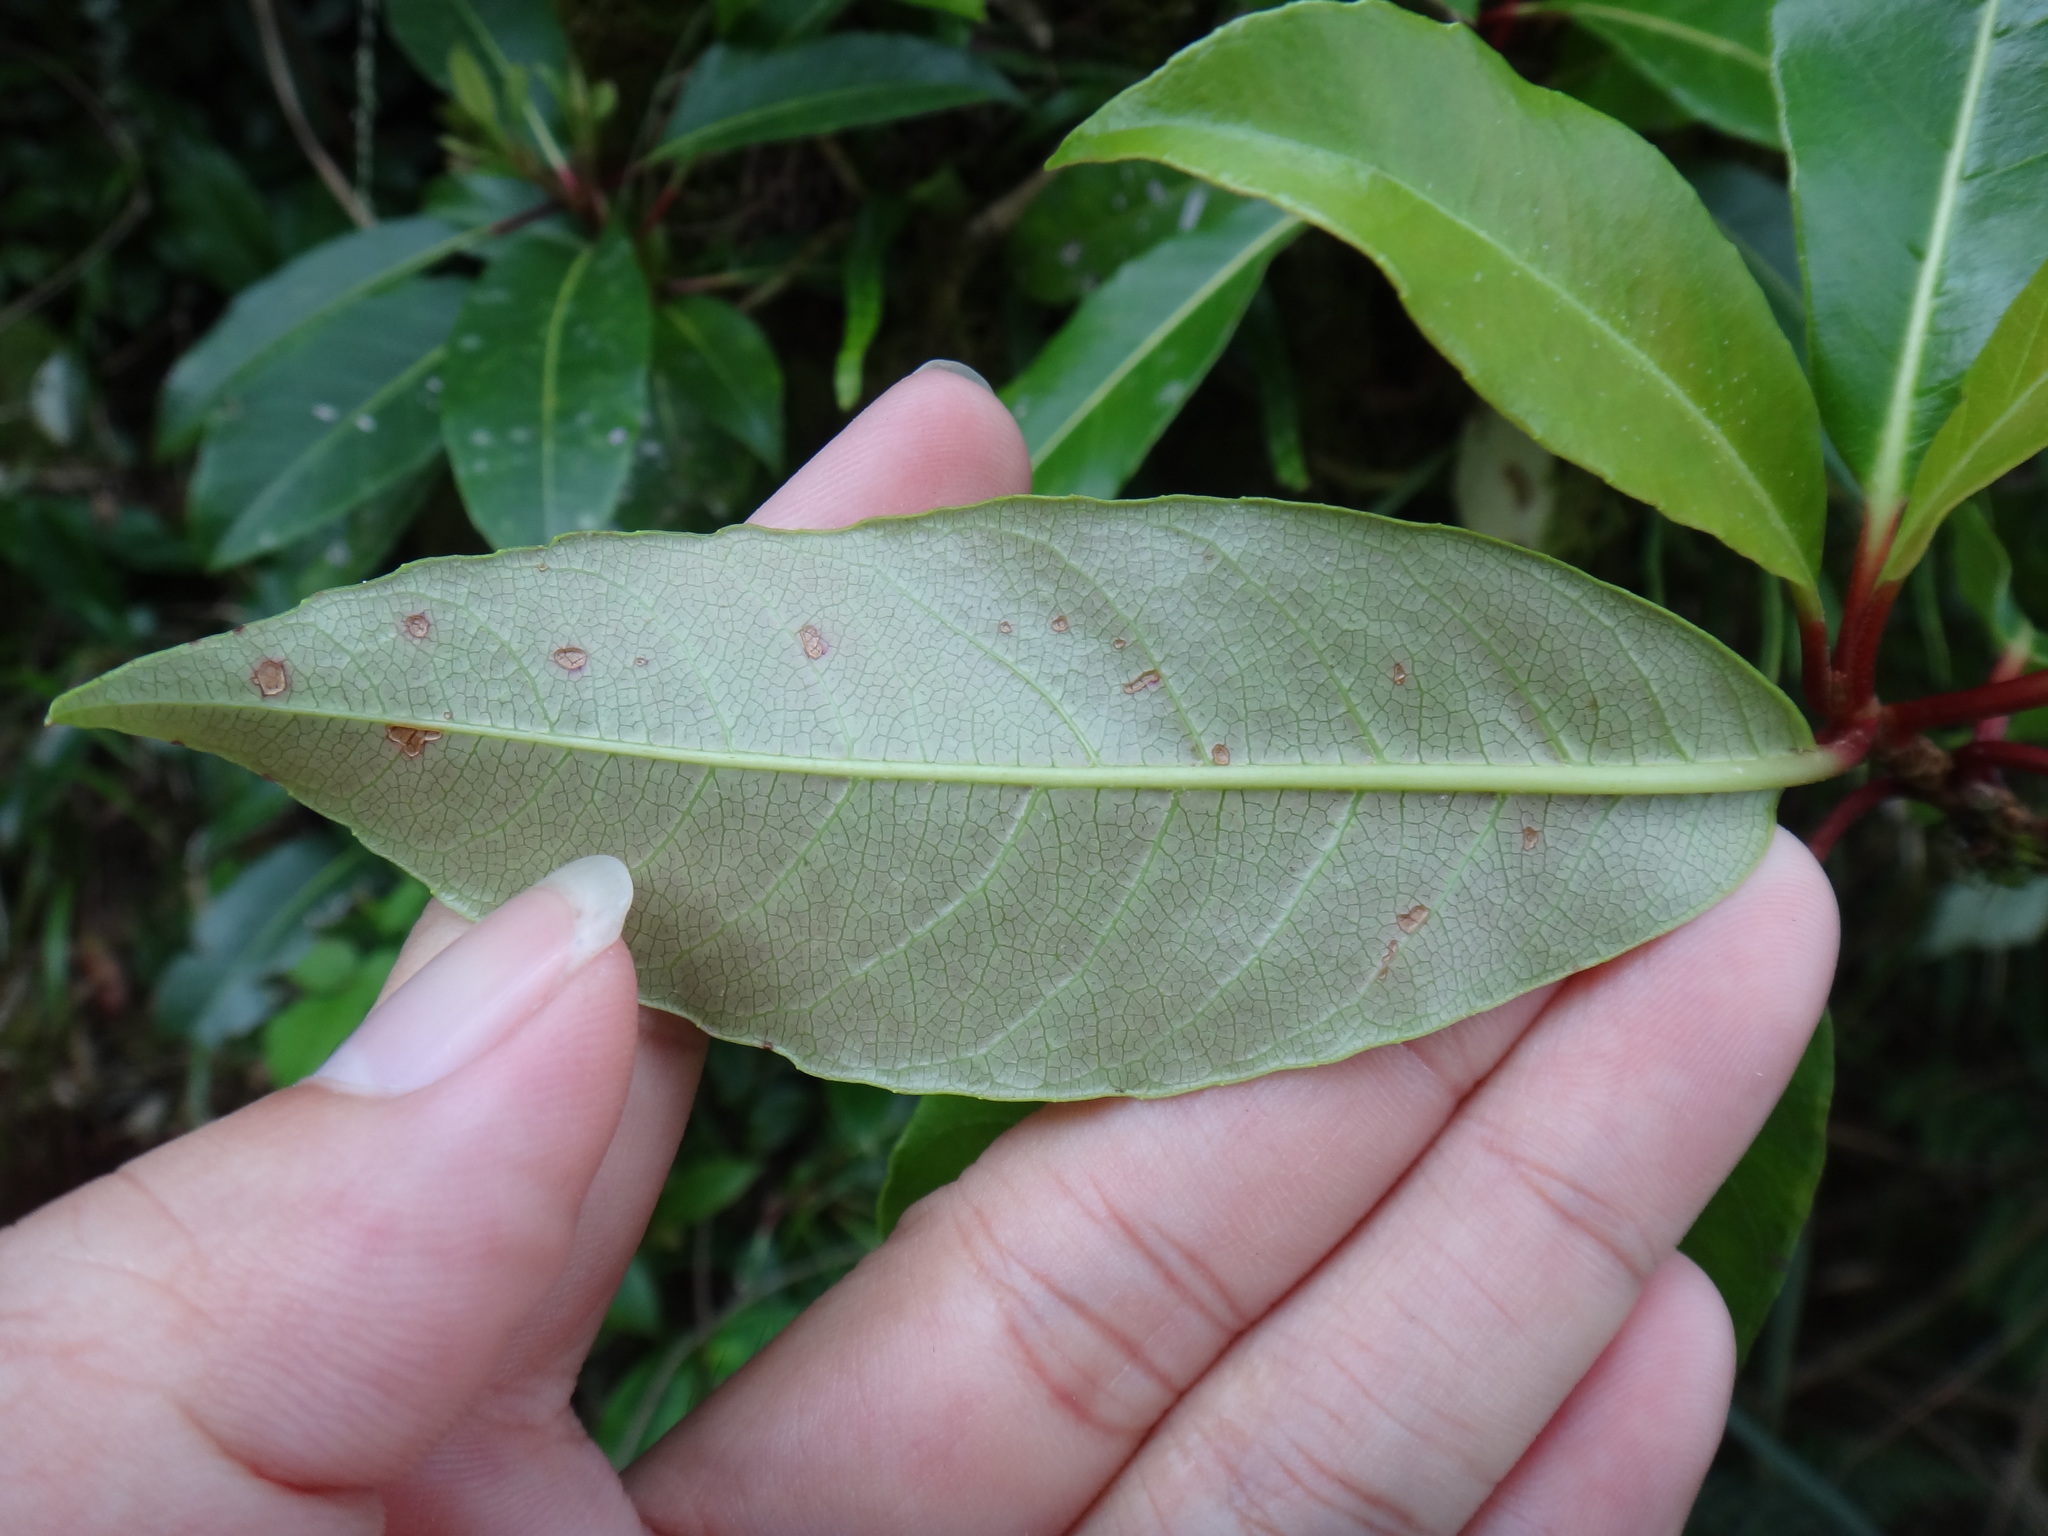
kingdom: Plantae
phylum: Tracheophyta
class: Magnoliopsida
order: Cornales
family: Hydrangeaceae
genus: Hydrangea
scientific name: Hydrangea integrifolia
